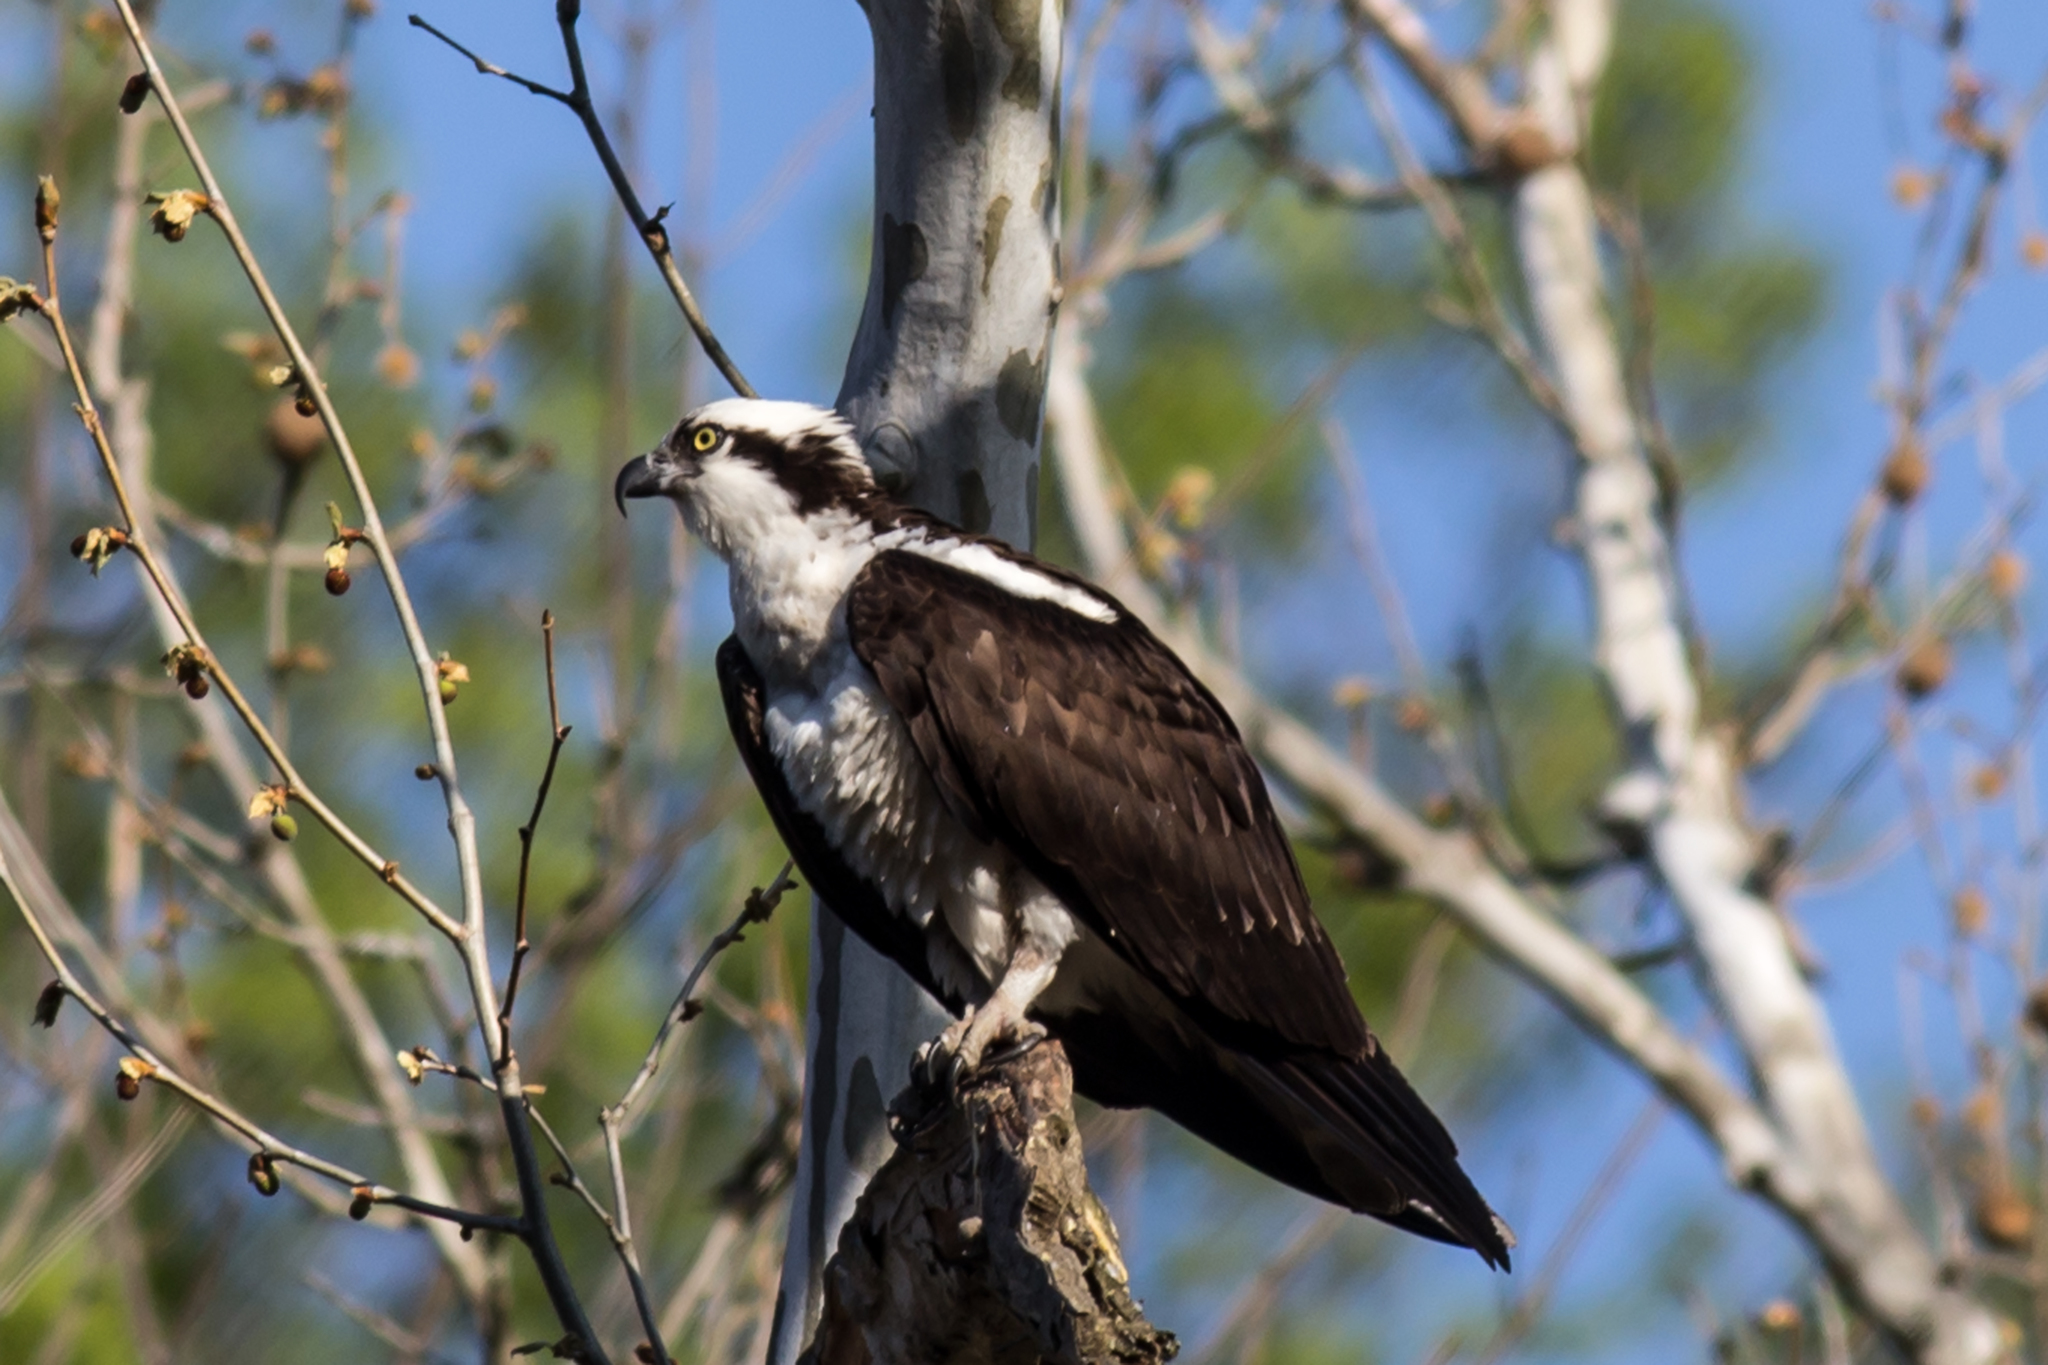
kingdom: Animalia
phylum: Chordata
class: Aves
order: Accipitriformes
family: Pandionidae
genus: Pandion
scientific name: Pandion haliaetus
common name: Osprey
